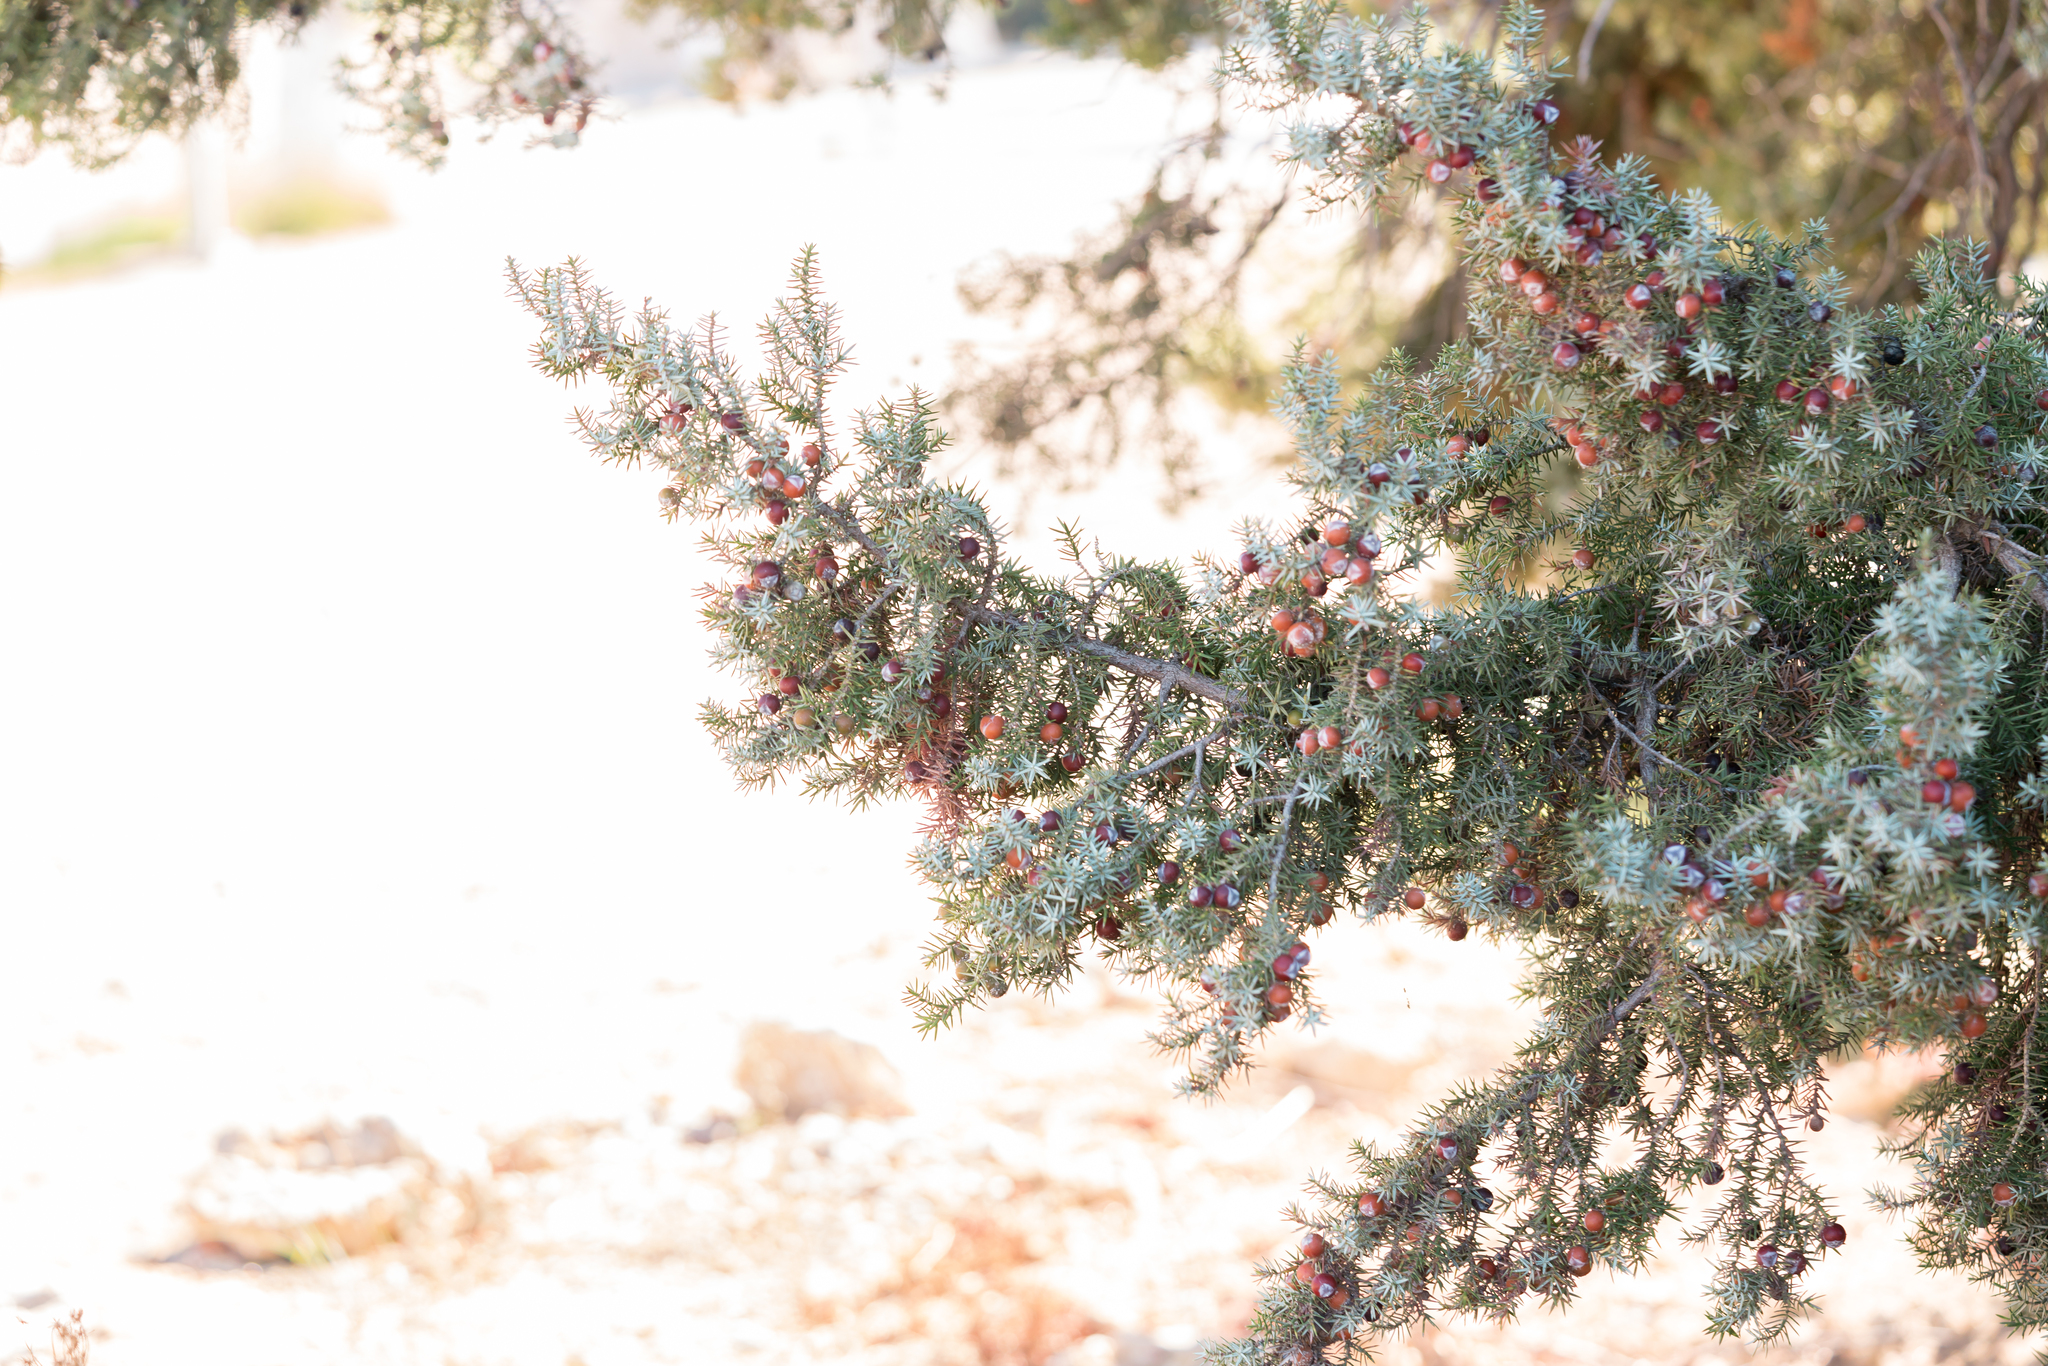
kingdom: Plantae
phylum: Tracheophyta
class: Pinopsida
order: Pinales
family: Cupressaceae
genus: Juniperus
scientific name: Juniperus oxycedrus
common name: Prickly juniper
